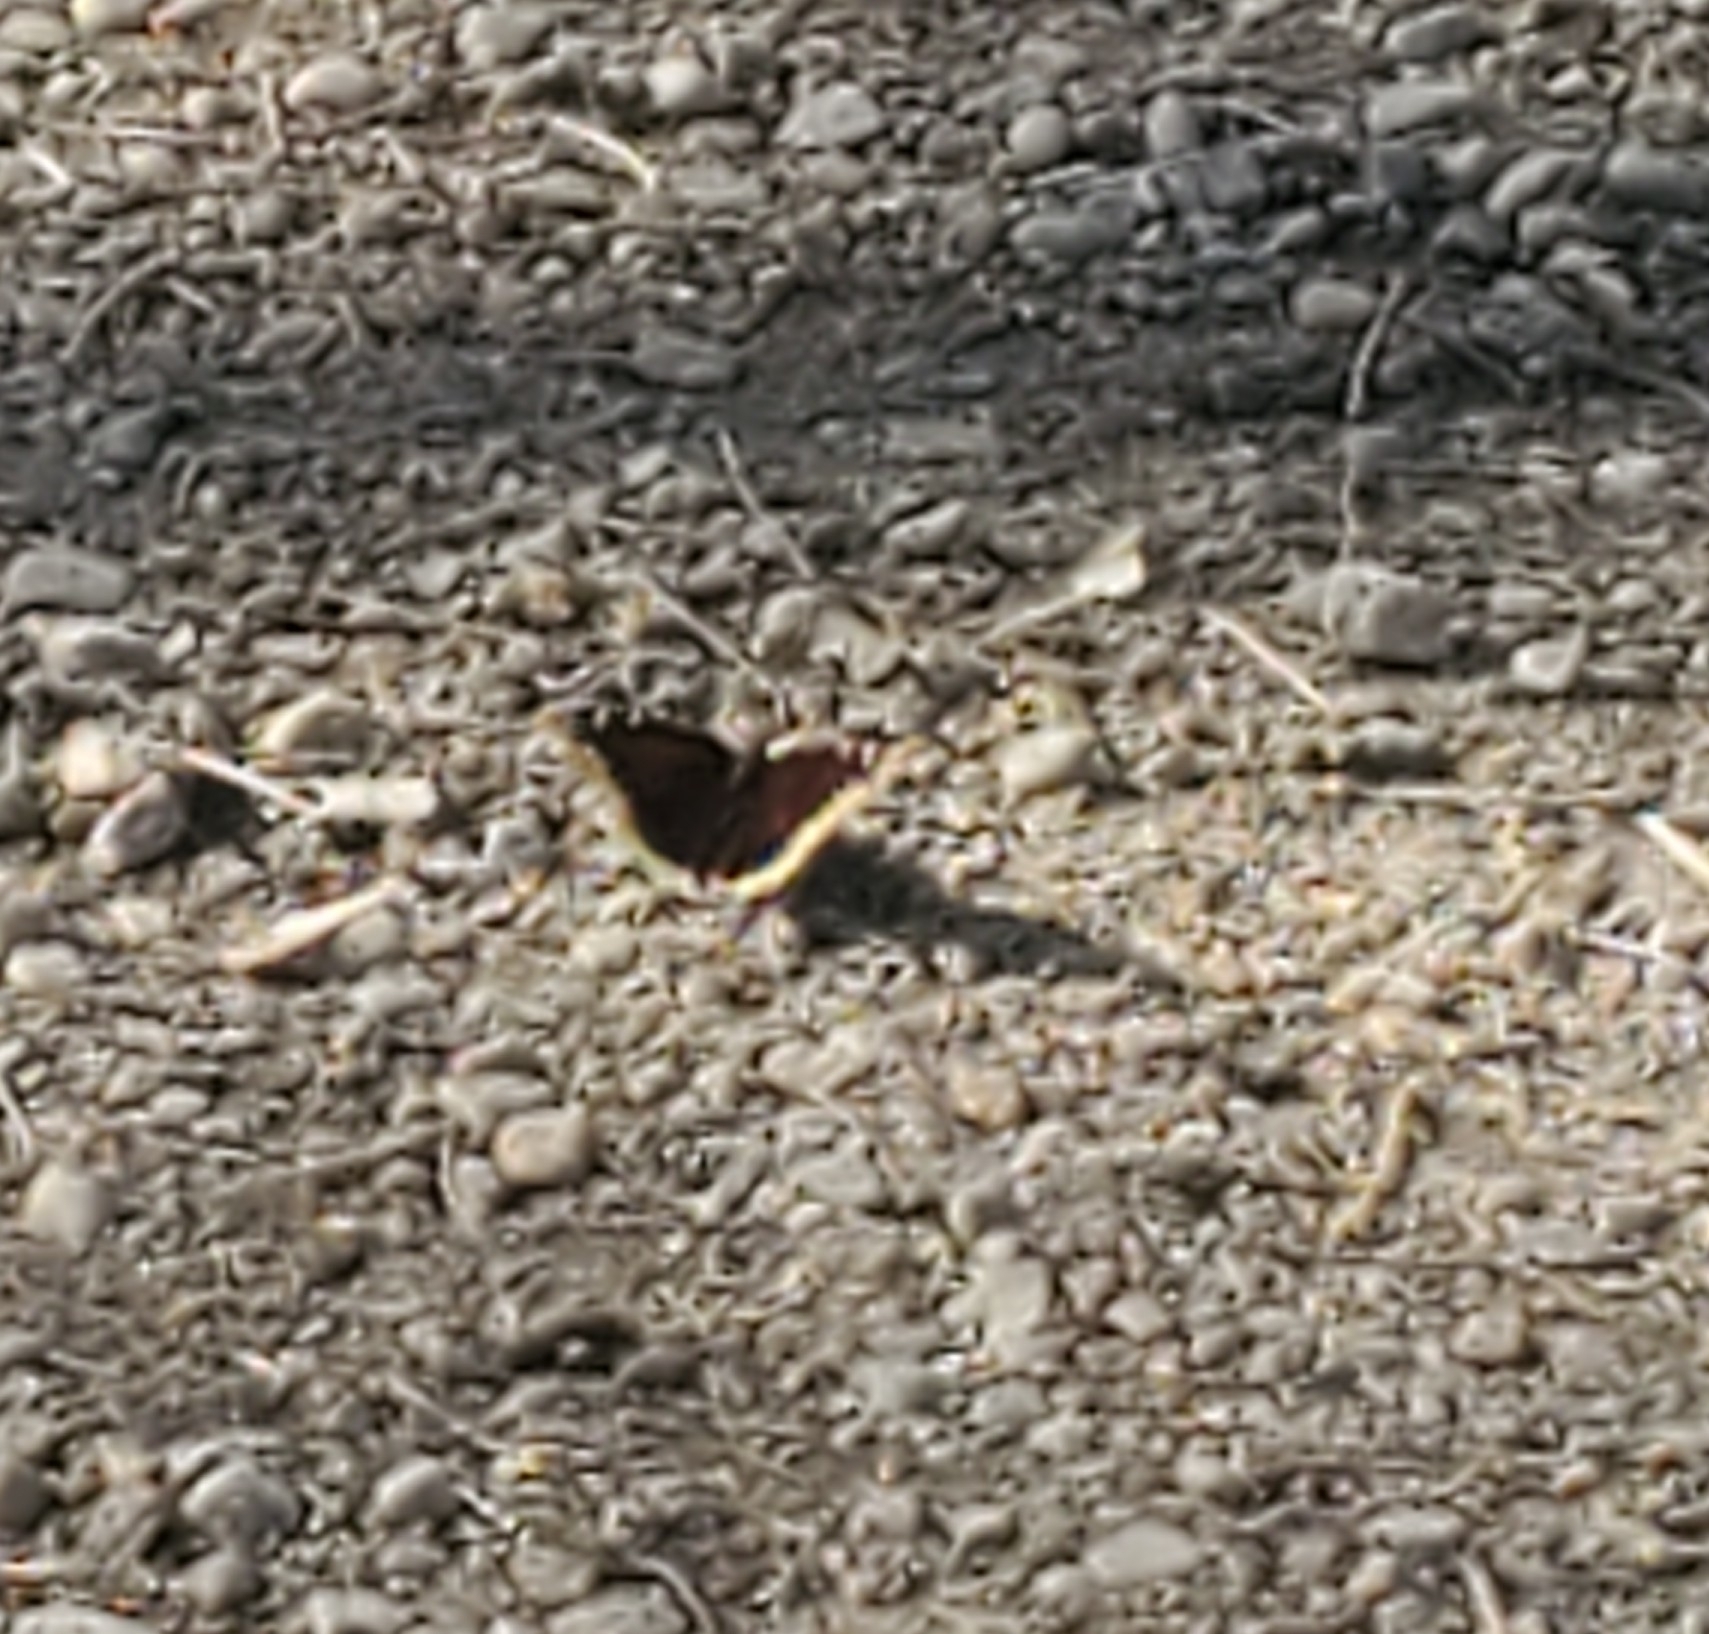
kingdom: Animalia
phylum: Arthropoda
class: Insecta
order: Lepidoptera
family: Nymphalidae
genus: Nymphalis
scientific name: Nymphalis antiopa
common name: Camberwell beauty
